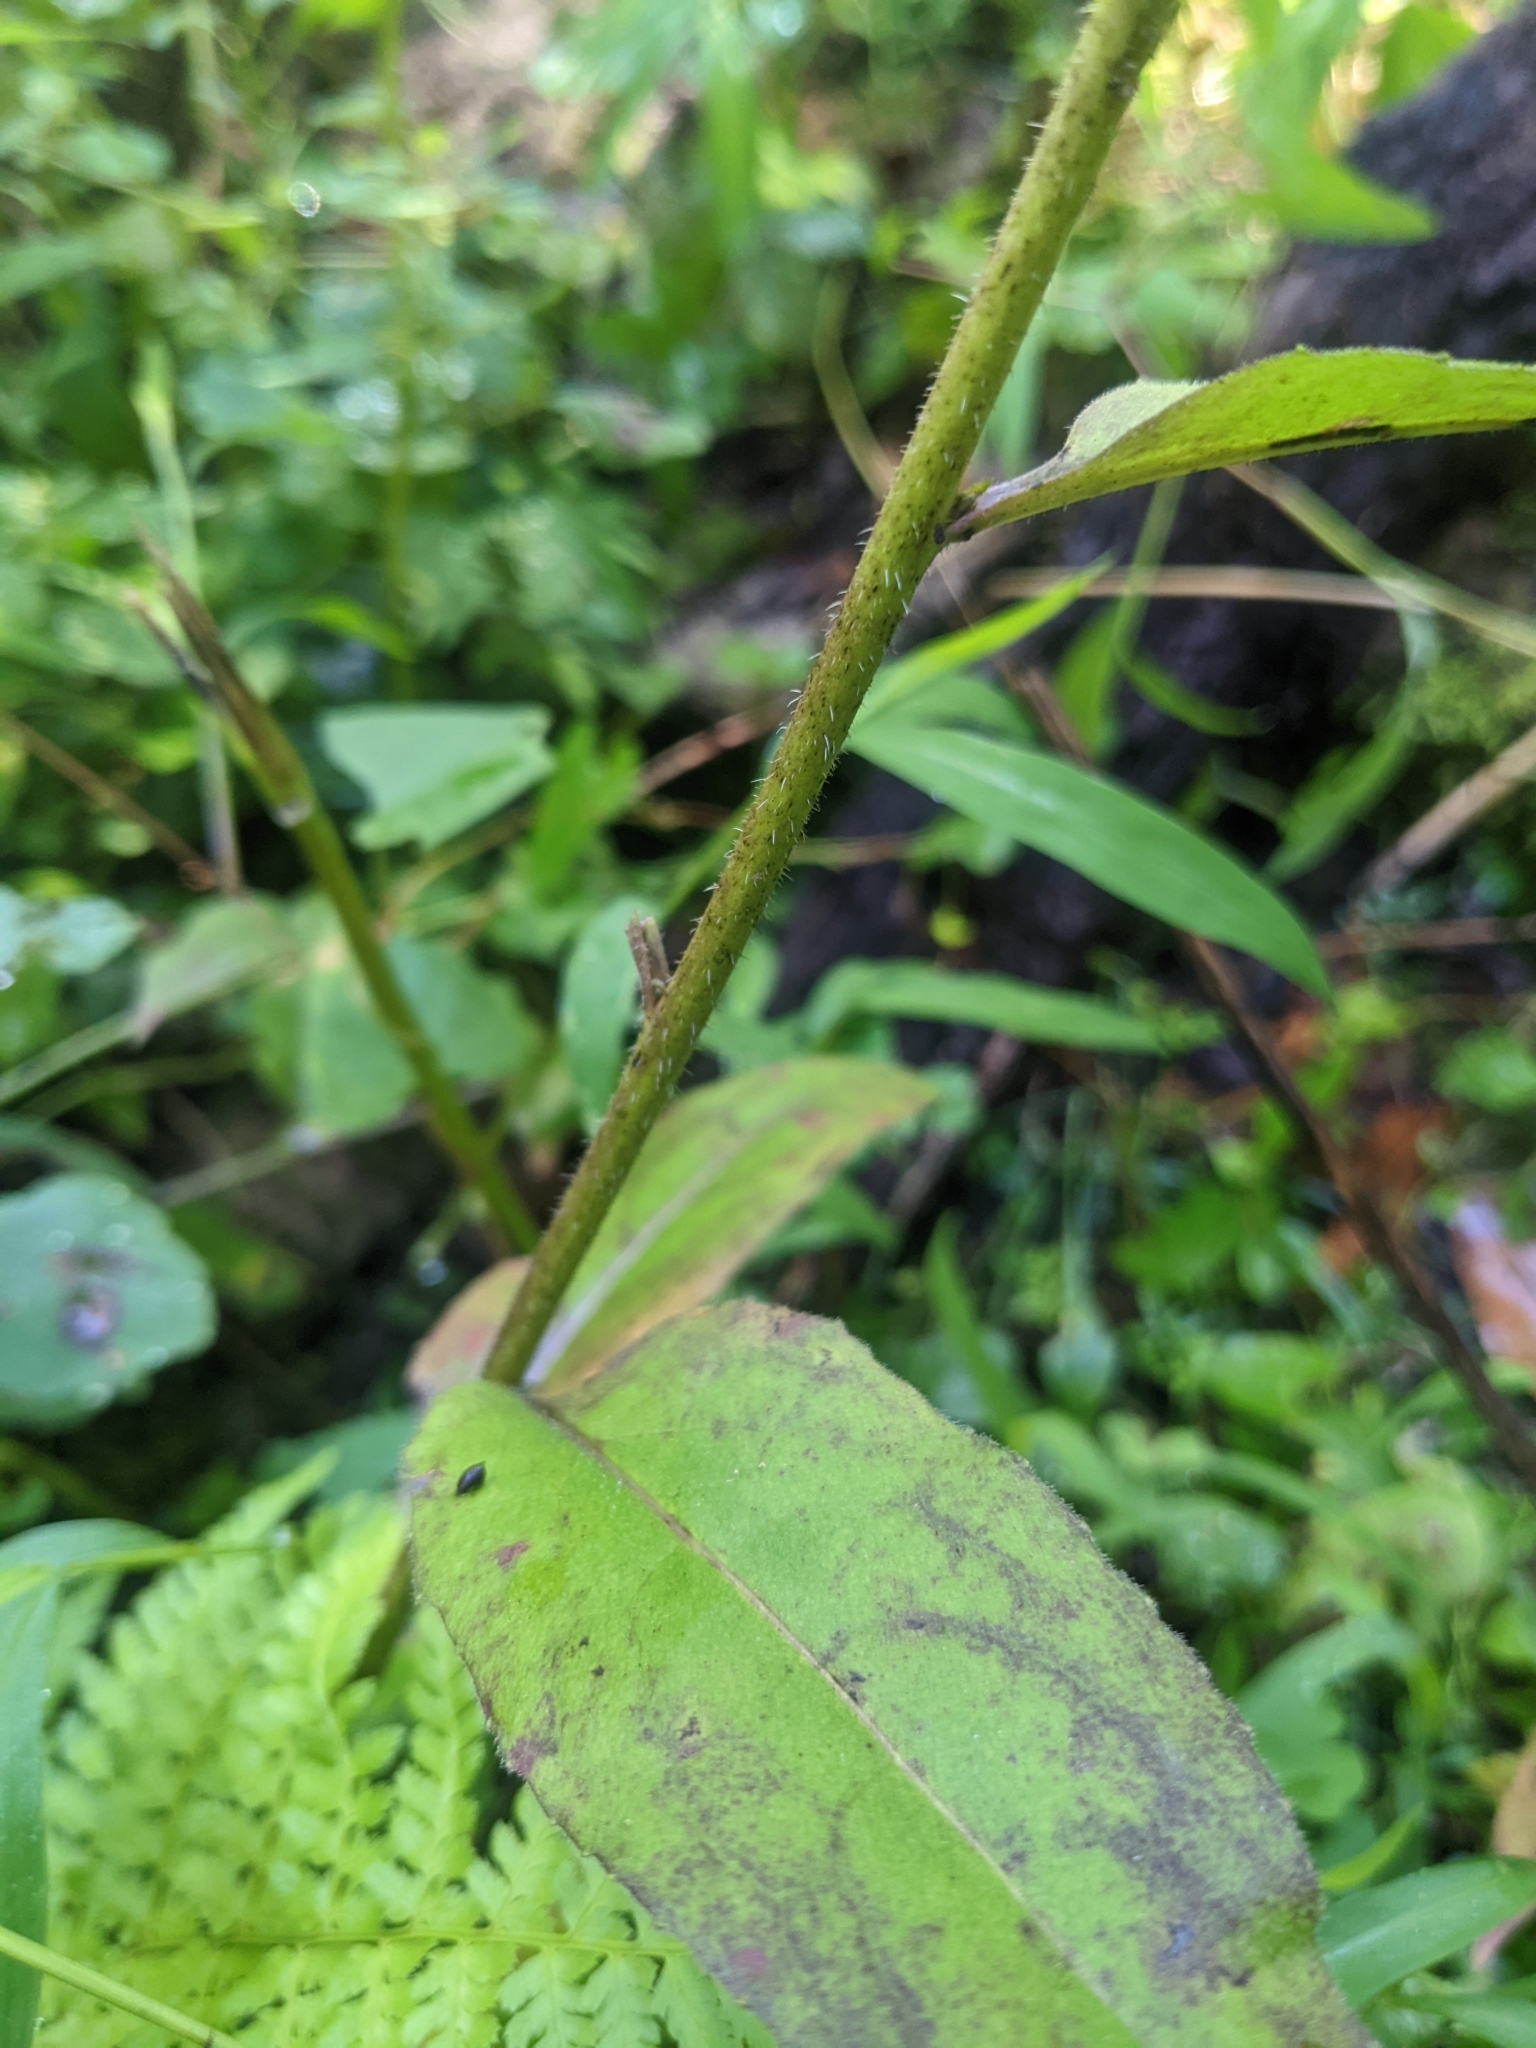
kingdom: Plantae
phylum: Tracheophyta
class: Magnoliopsida
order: Brassicales
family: Brassicaceae
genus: Hesperis
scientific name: Hesperis matronalis
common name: Dame's-violet
